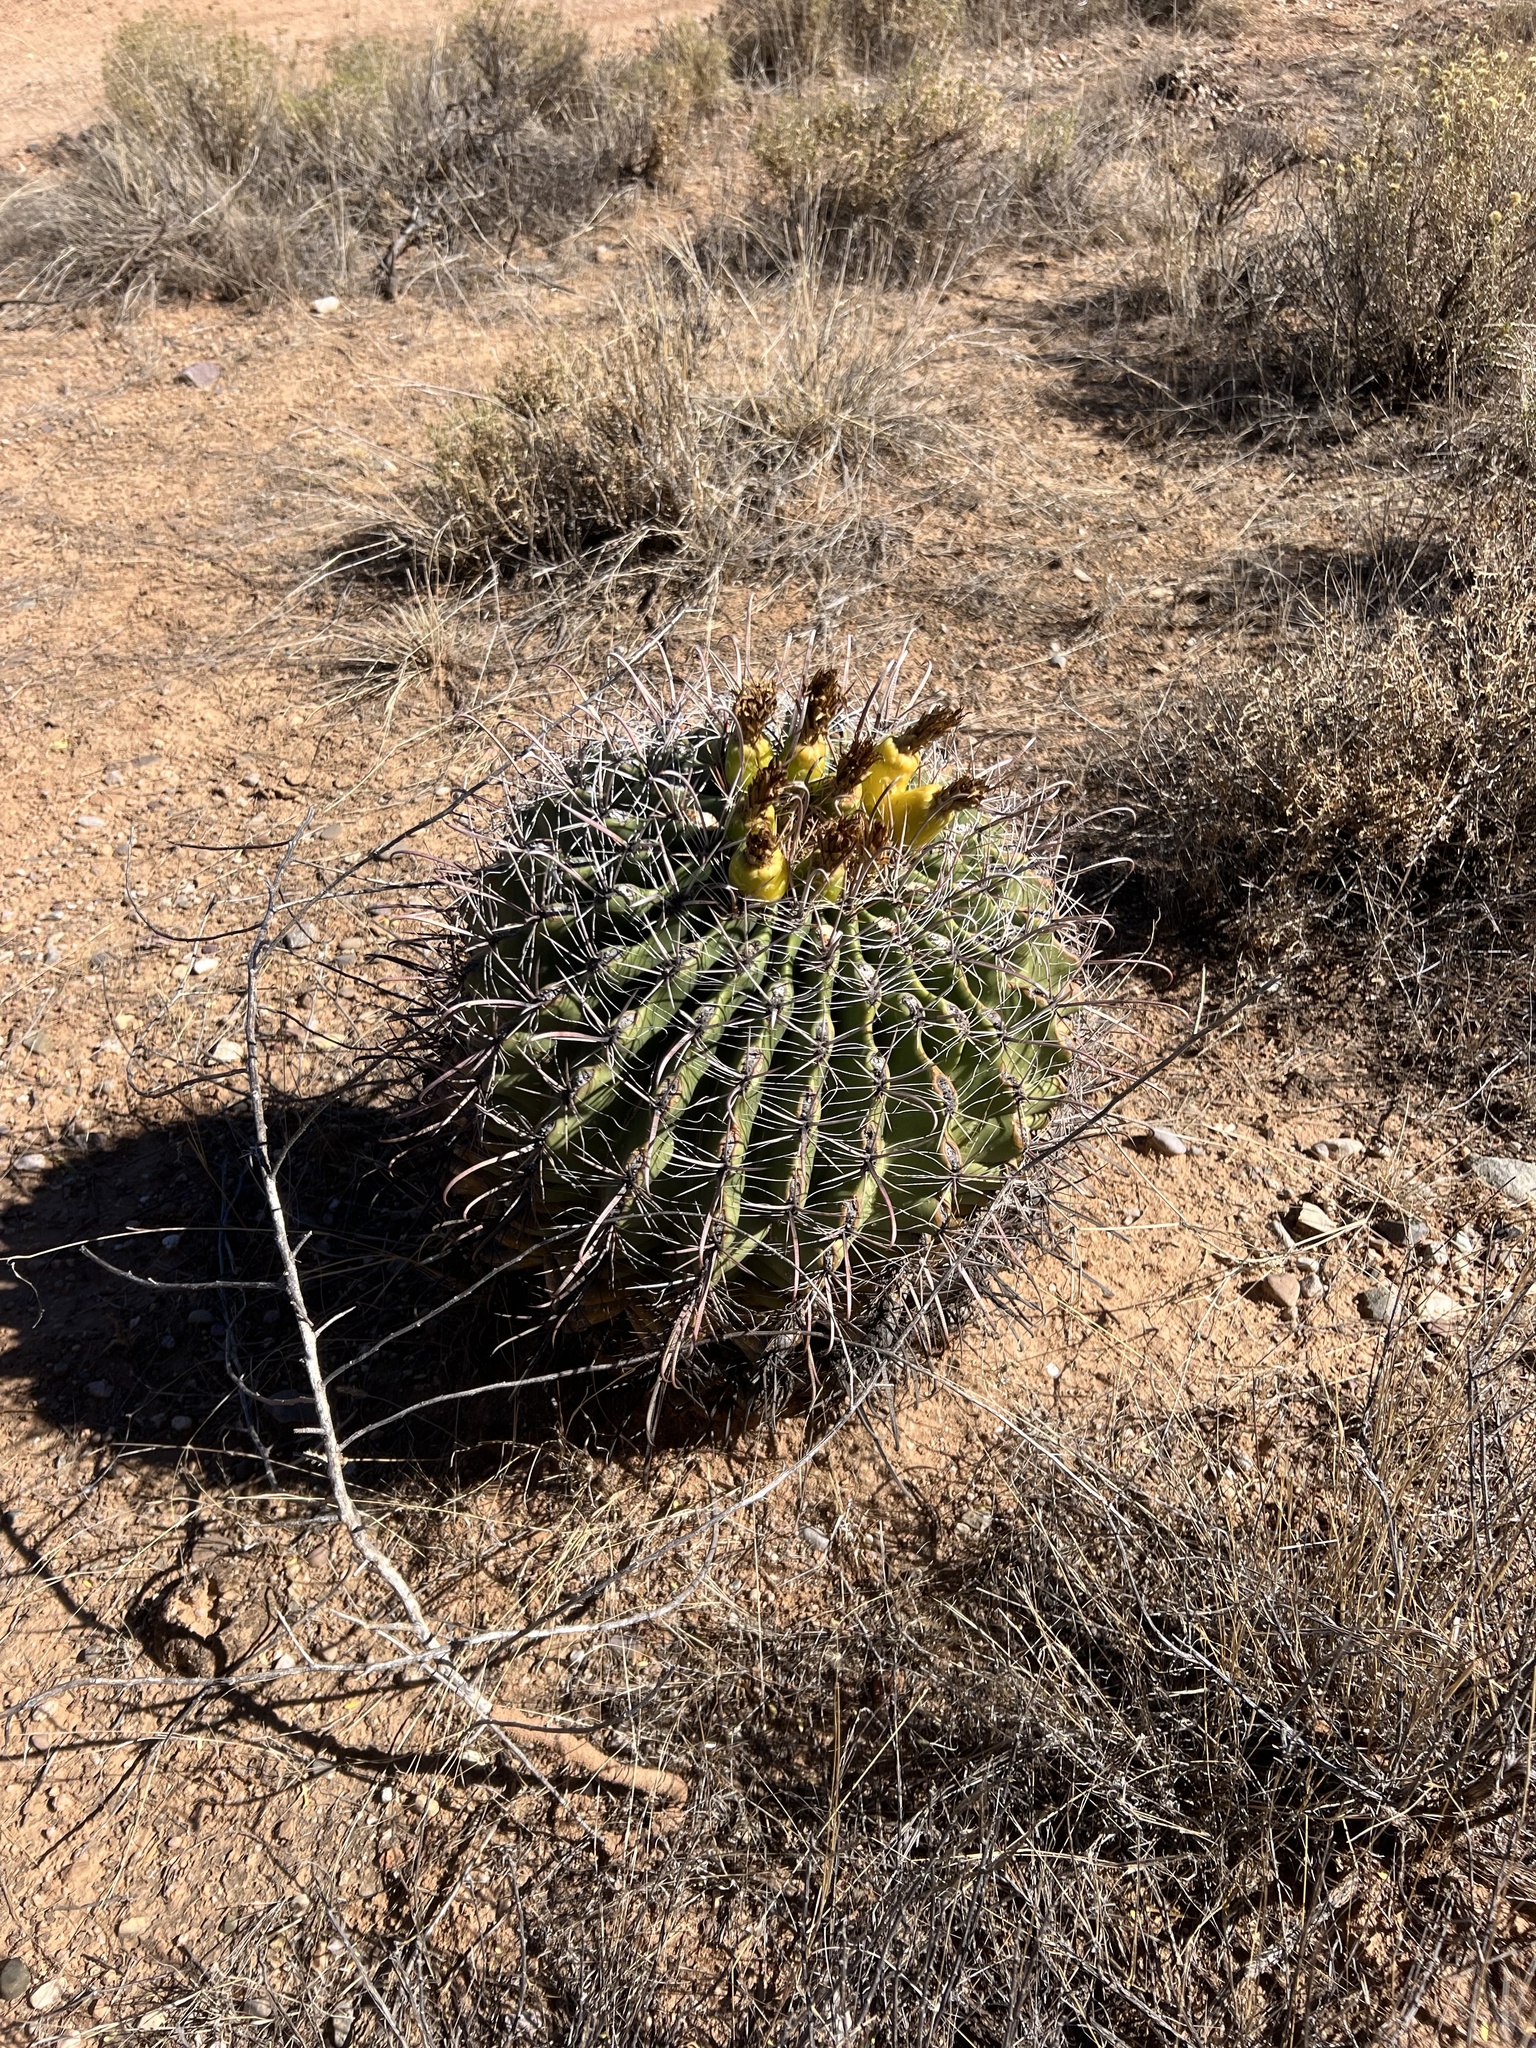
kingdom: Plantae
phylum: Tracheophyta
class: Magnoliopsida
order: Caryophyllales
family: Cactaceae
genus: Ferocactus
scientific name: Ferocactus wislizeni
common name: Candy barrel cactus
